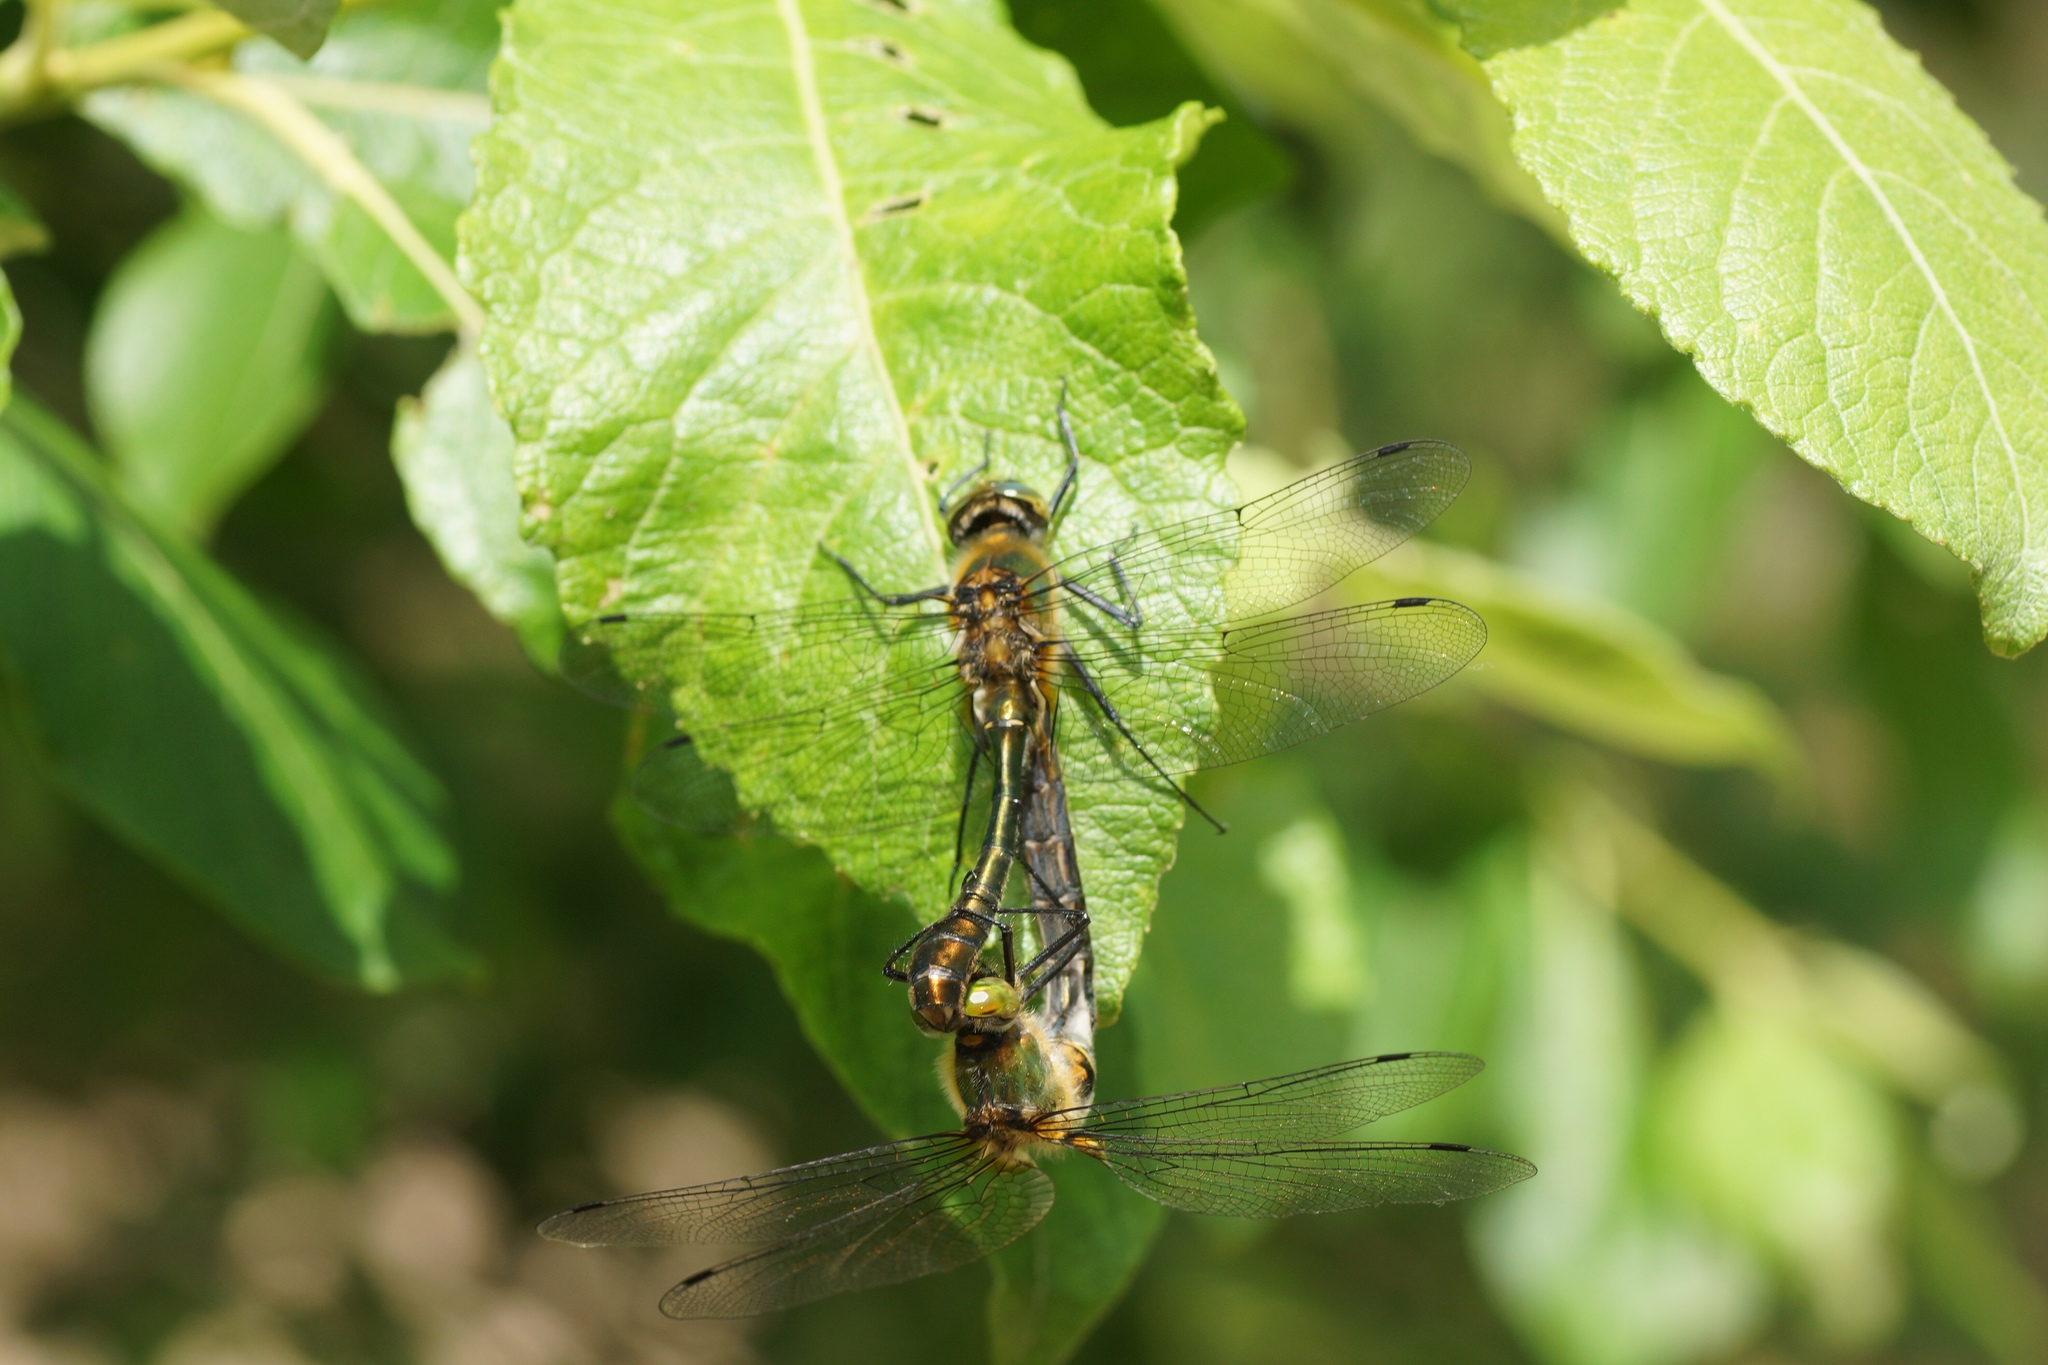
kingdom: Animalia
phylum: Arthropoda
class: Insecta
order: Odonata
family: Corduliidae
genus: Cordulia
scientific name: Cordulia aenea
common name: Downy emerald
